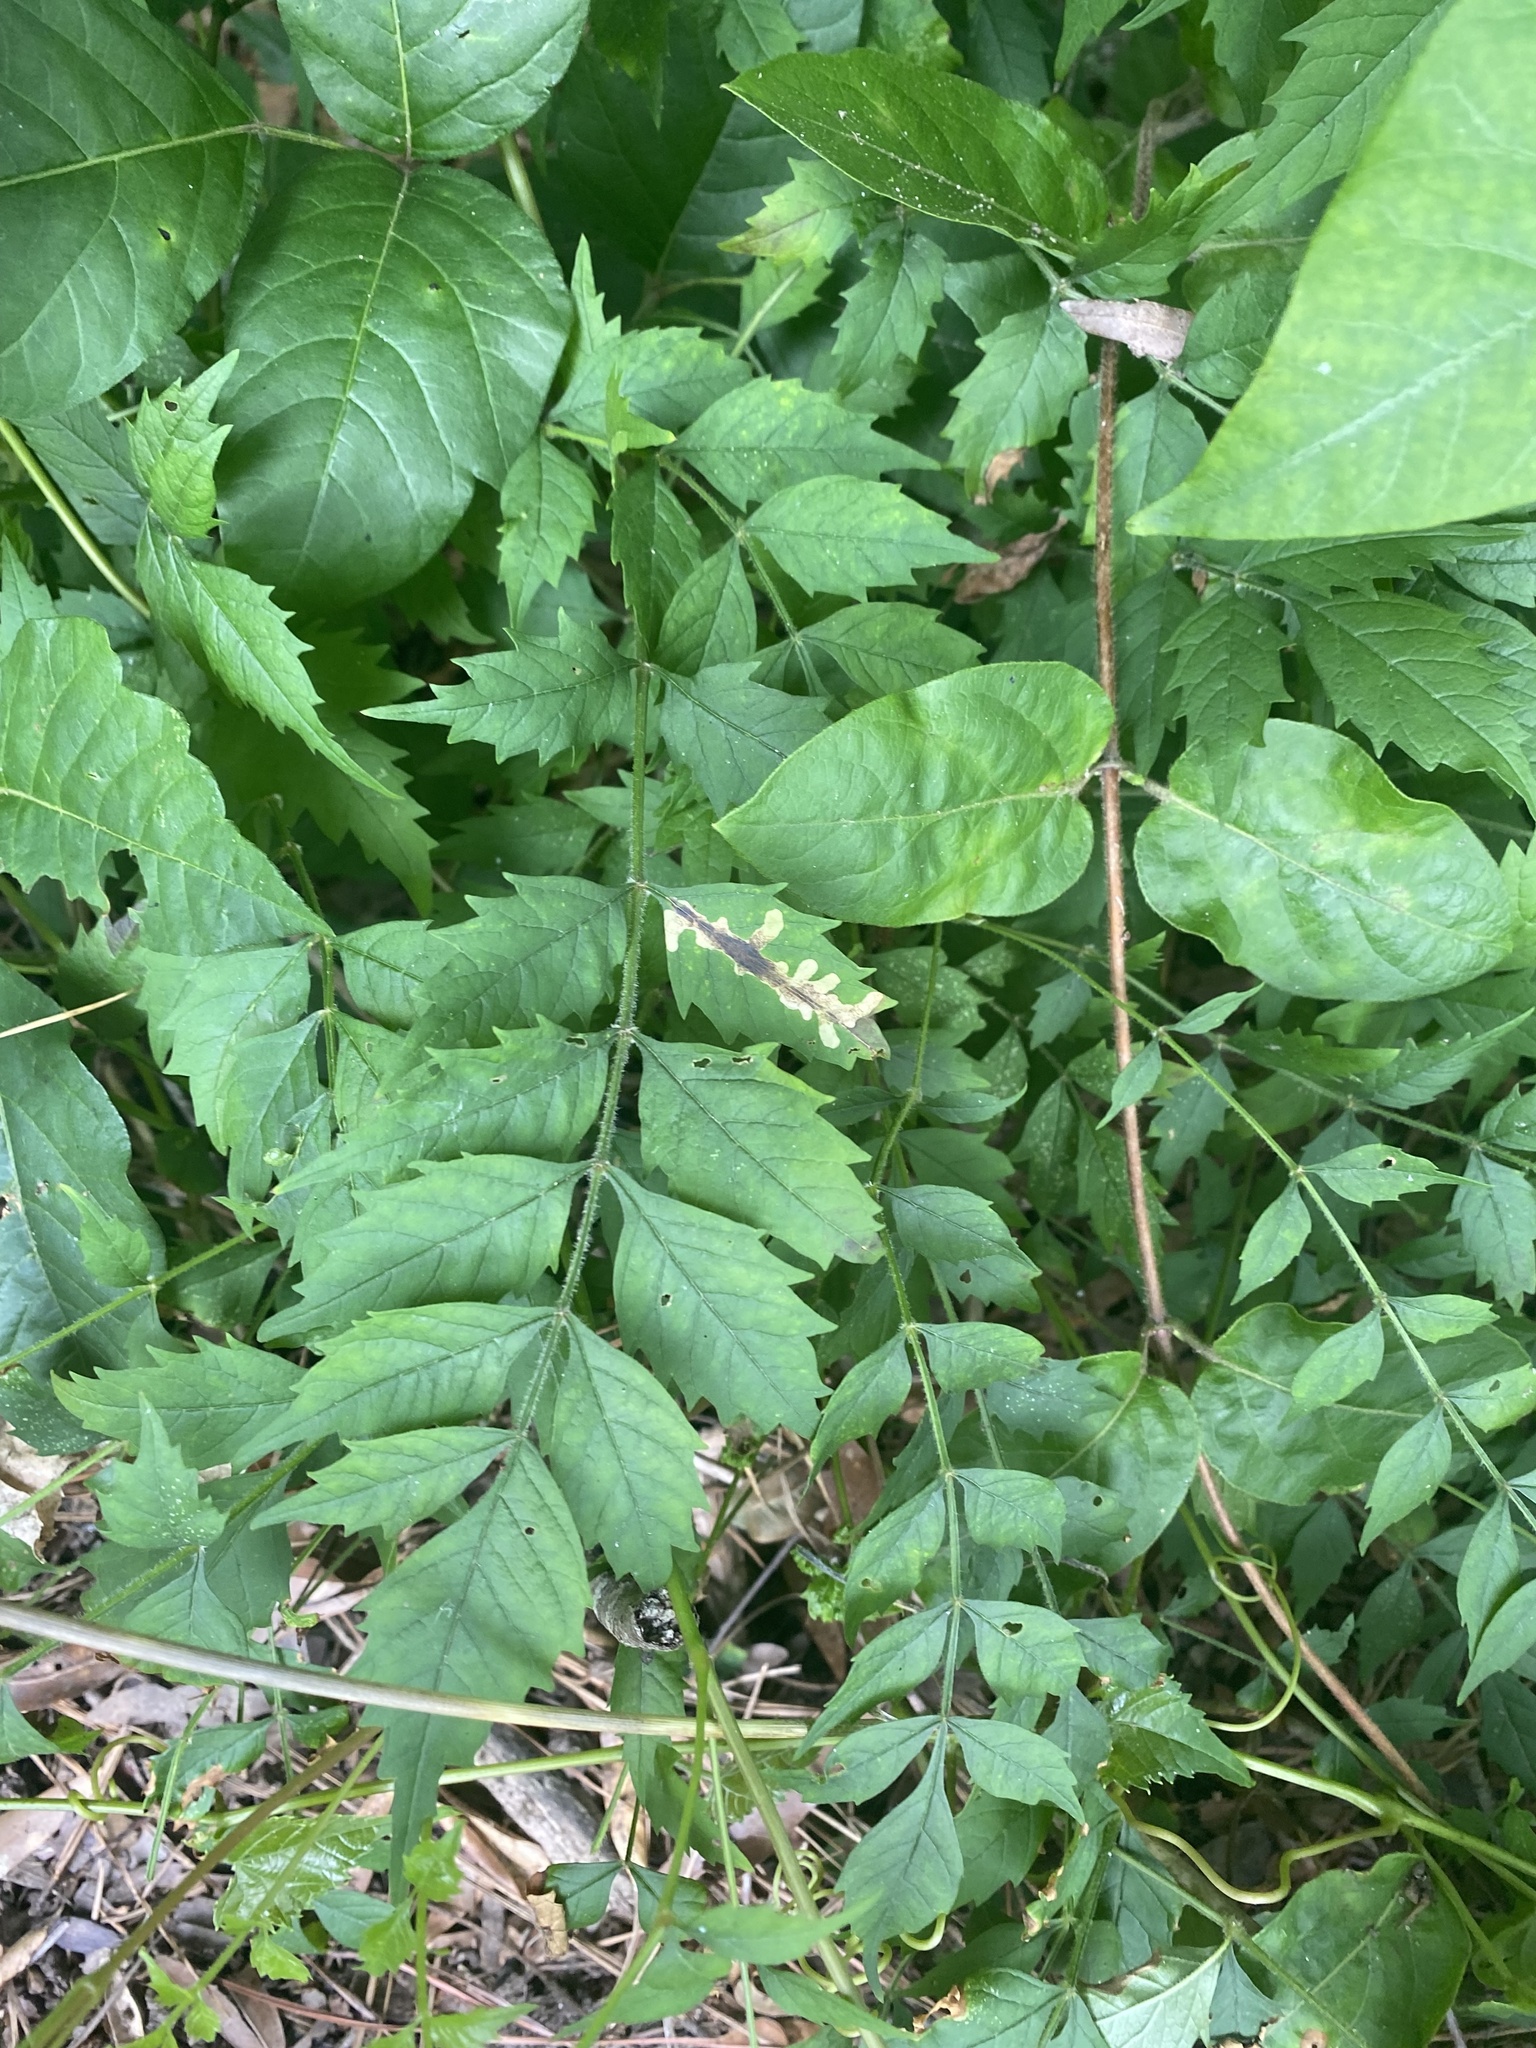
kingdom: Plantae
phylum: Tracheophyta
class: Magnoliopsida
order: Lamiales
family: Bignoniaceae
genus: Campsis
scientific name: Campsis radicans
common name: Trumpet-creeper
